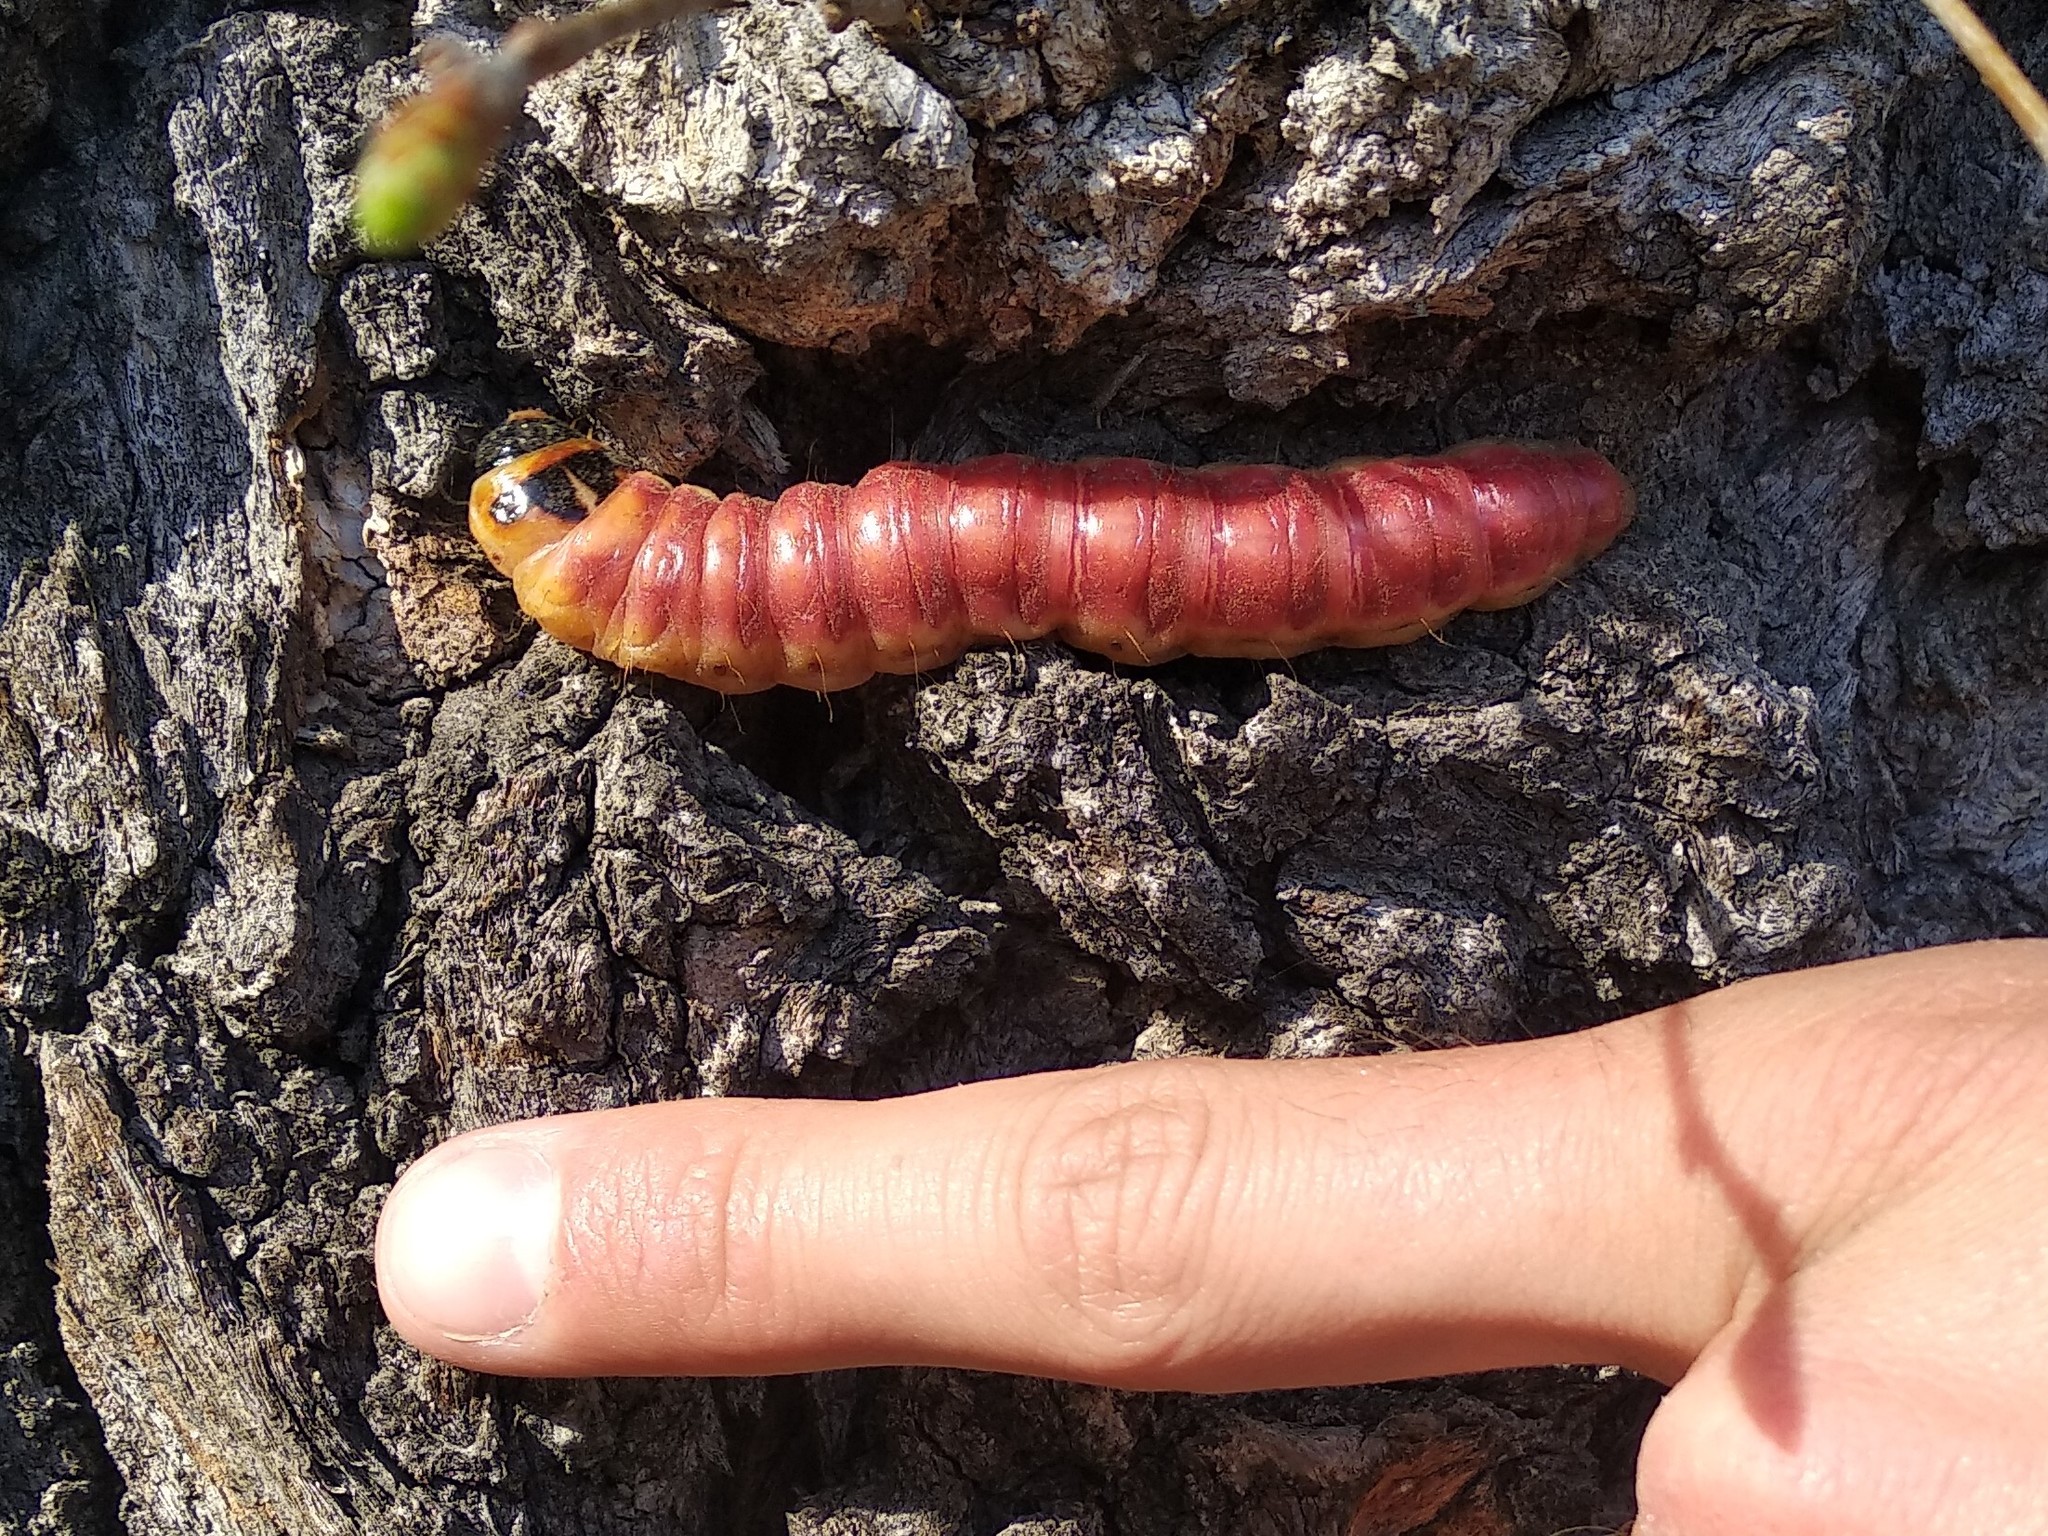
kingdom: Animalia
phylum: Arthropoda
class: Insecta
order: Lepidoptera
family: Cossidae
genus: Cossus
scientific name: Cossus cossus
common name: Goat moth
